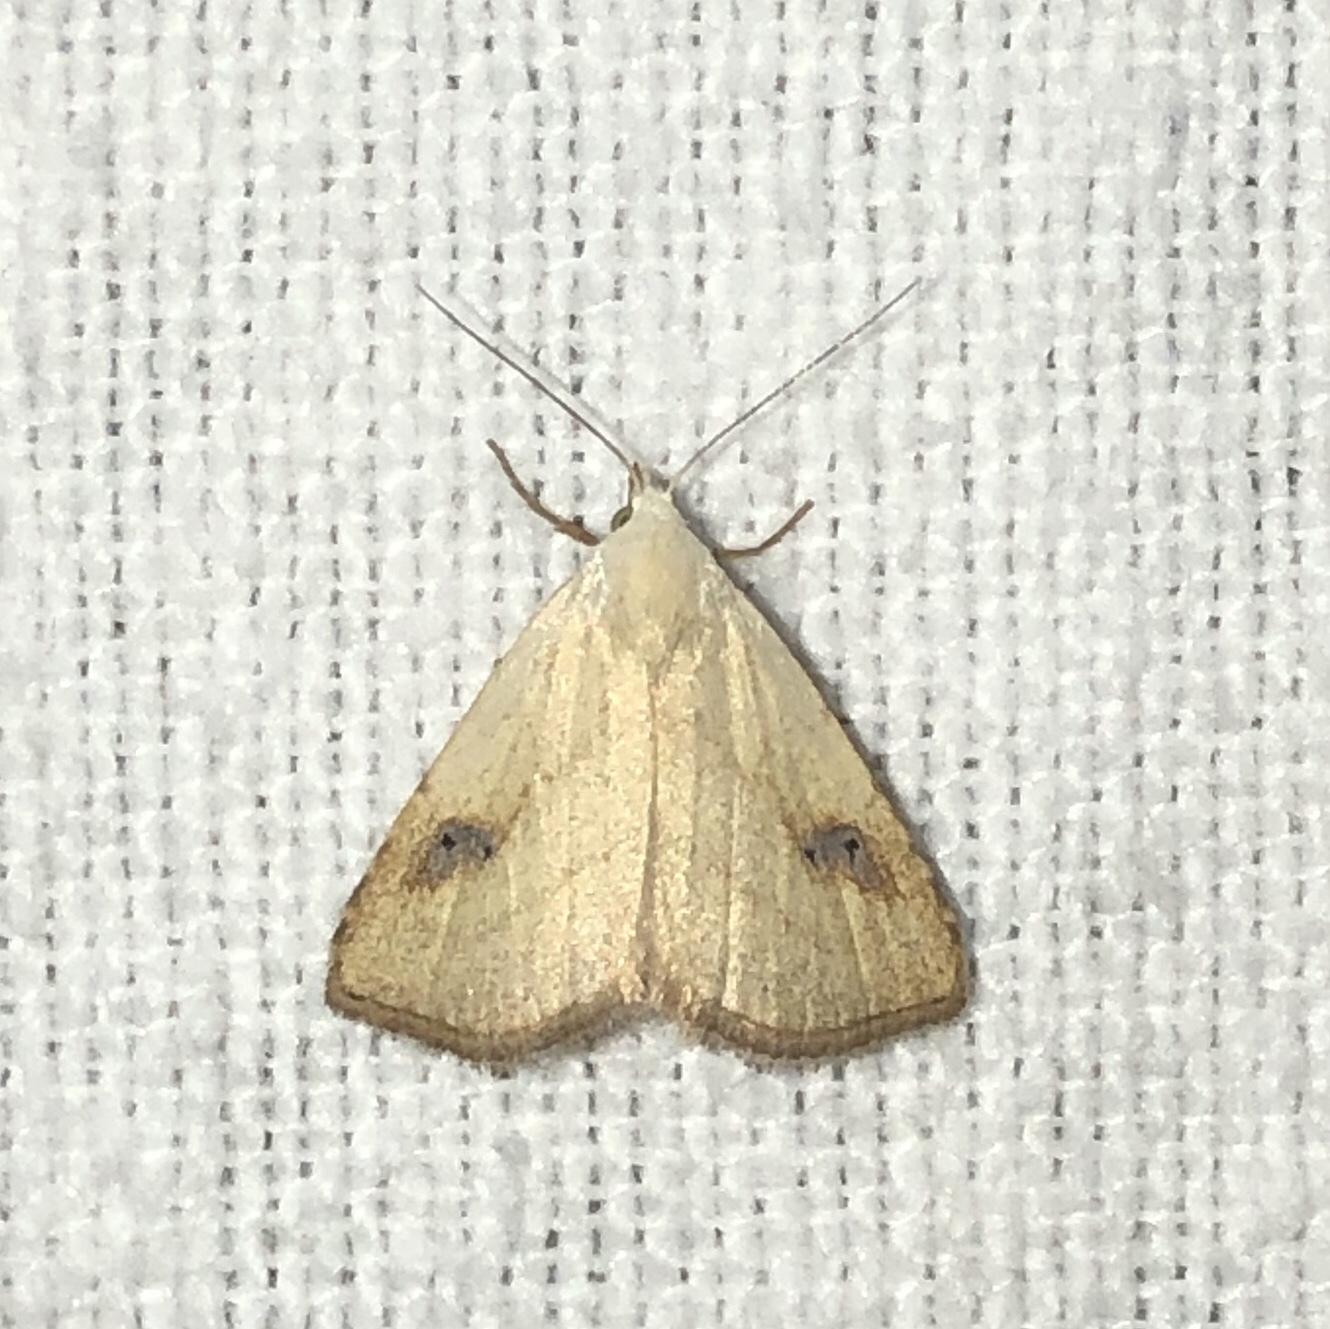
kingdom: Animalia
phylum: Arthropoda
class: Insecta
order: Lepidoptera
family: Erebidae
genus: Rivula
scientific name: Rivula propinqualis
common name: Spotted grass moth
